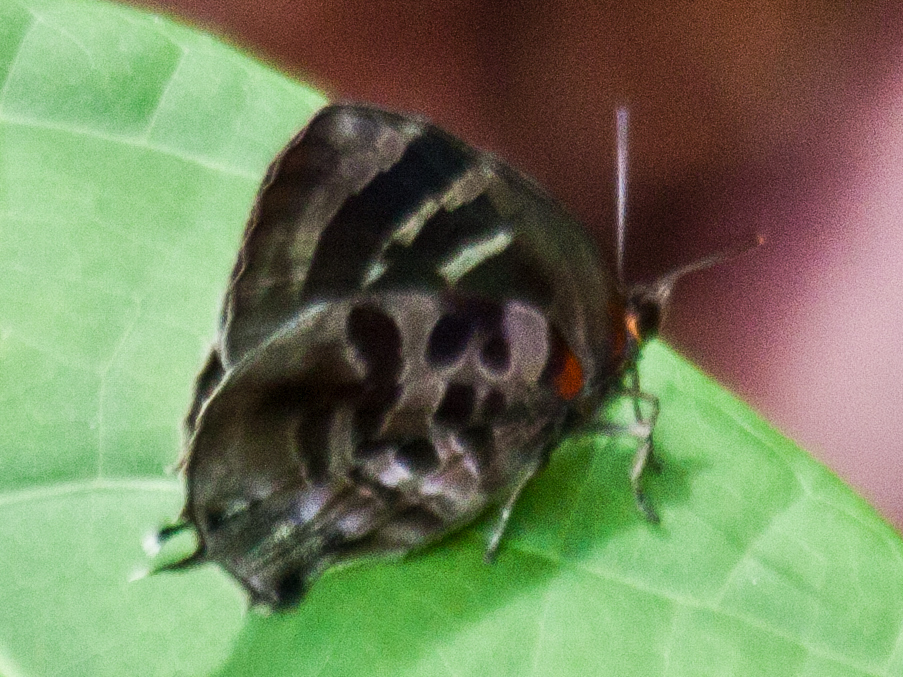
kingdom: Animalia
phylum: Arthropoda
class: Insecta
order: Lepidoptera
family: Lycaenidae
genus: Flos
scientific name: Flos
